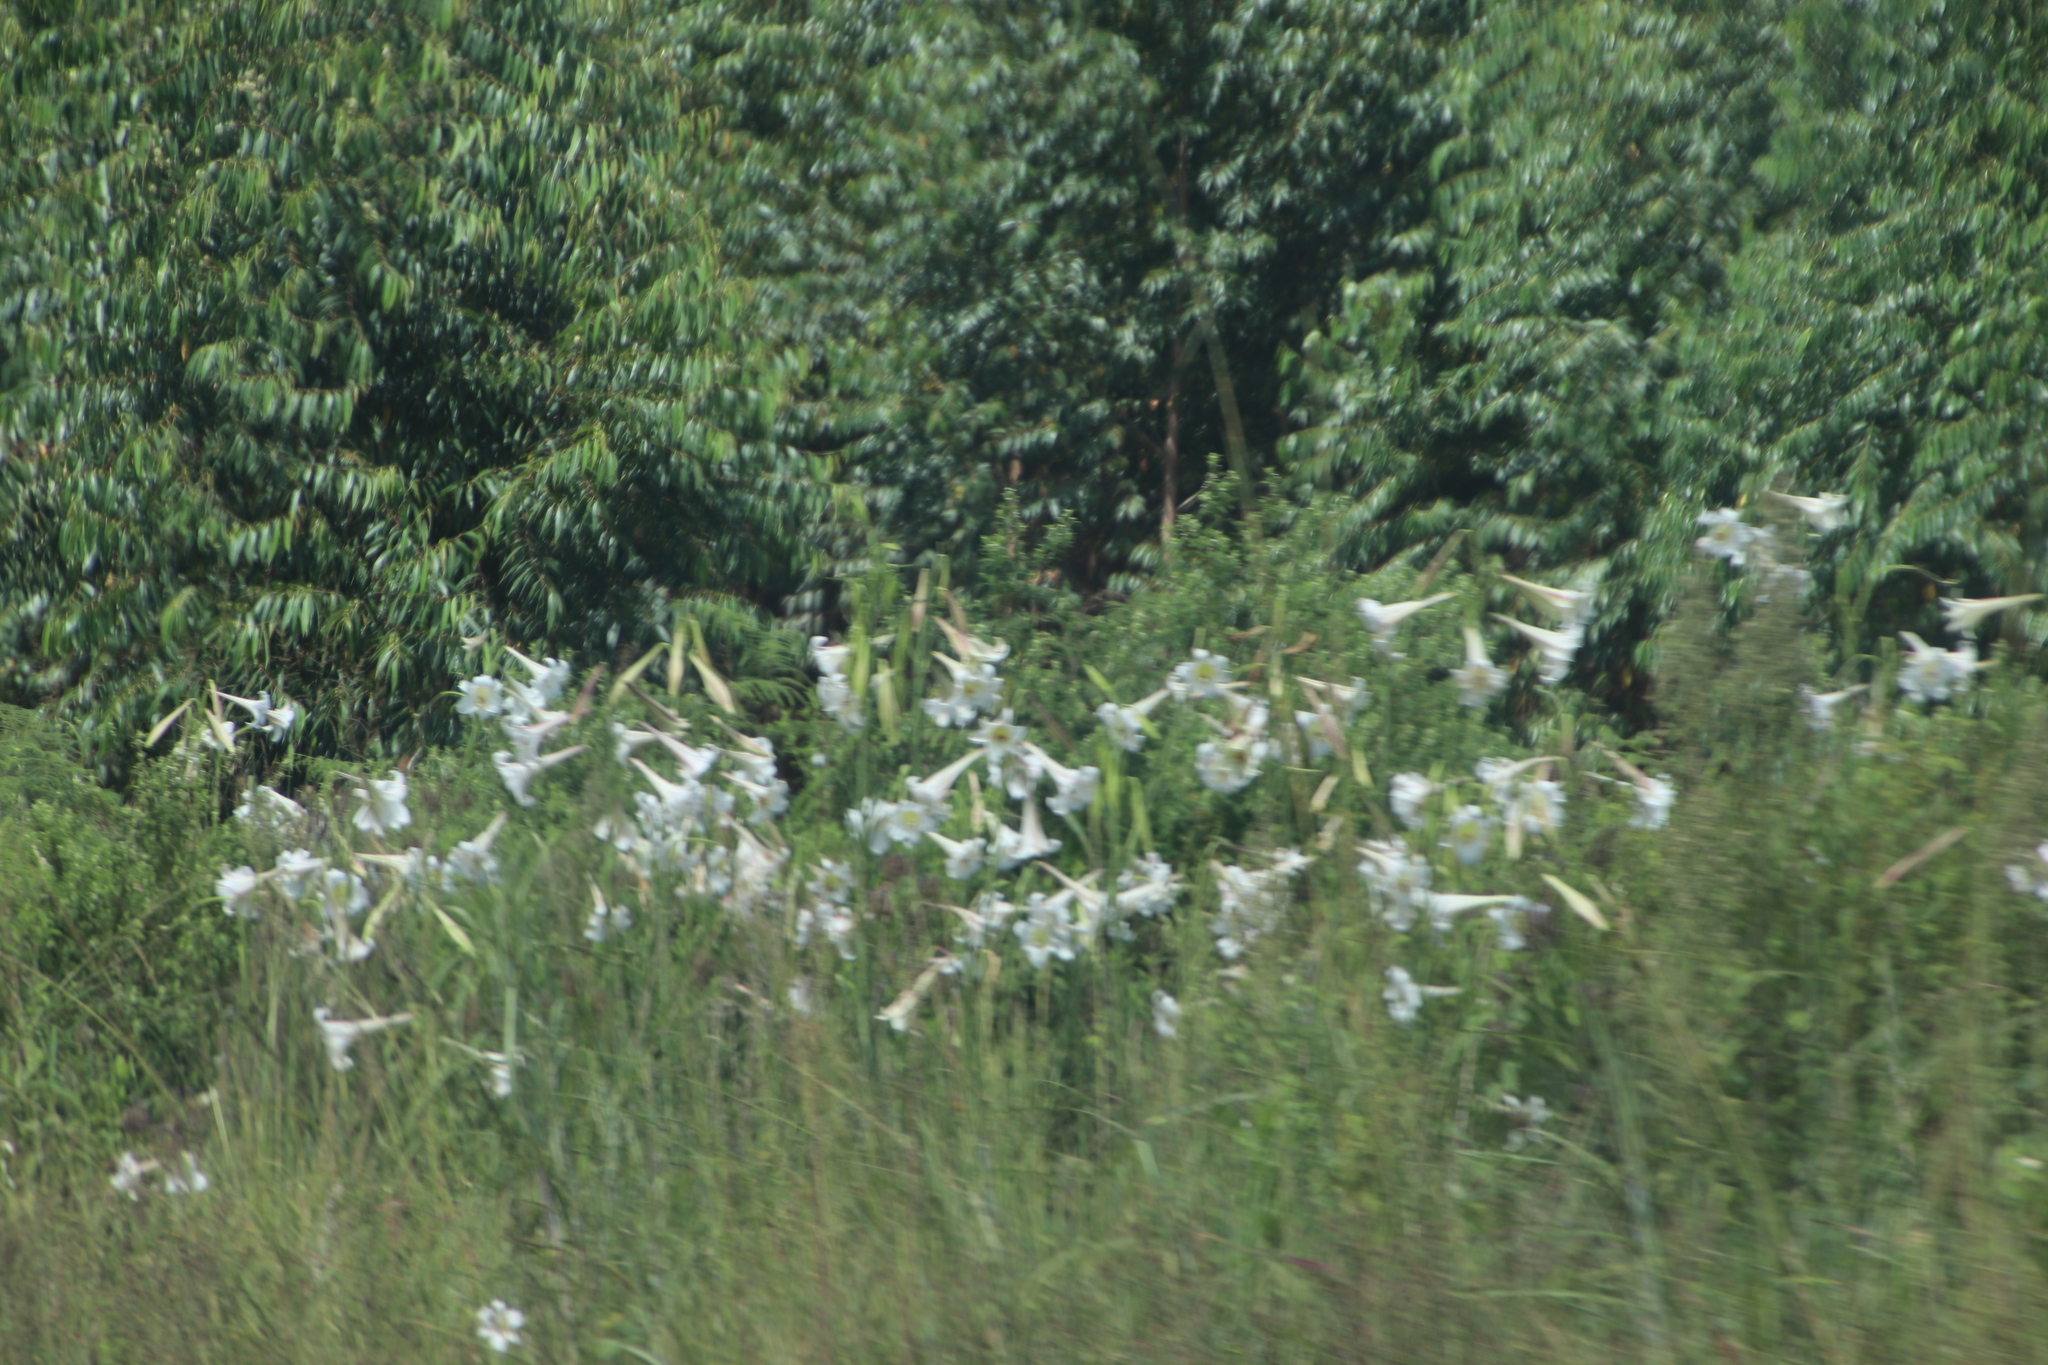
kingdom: Plantae
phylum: Tracheophyta
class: Liliopsida
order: Liliales
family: Liliaceae
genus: Lilium
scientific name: Lilium formosanum
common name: Formosa lily
